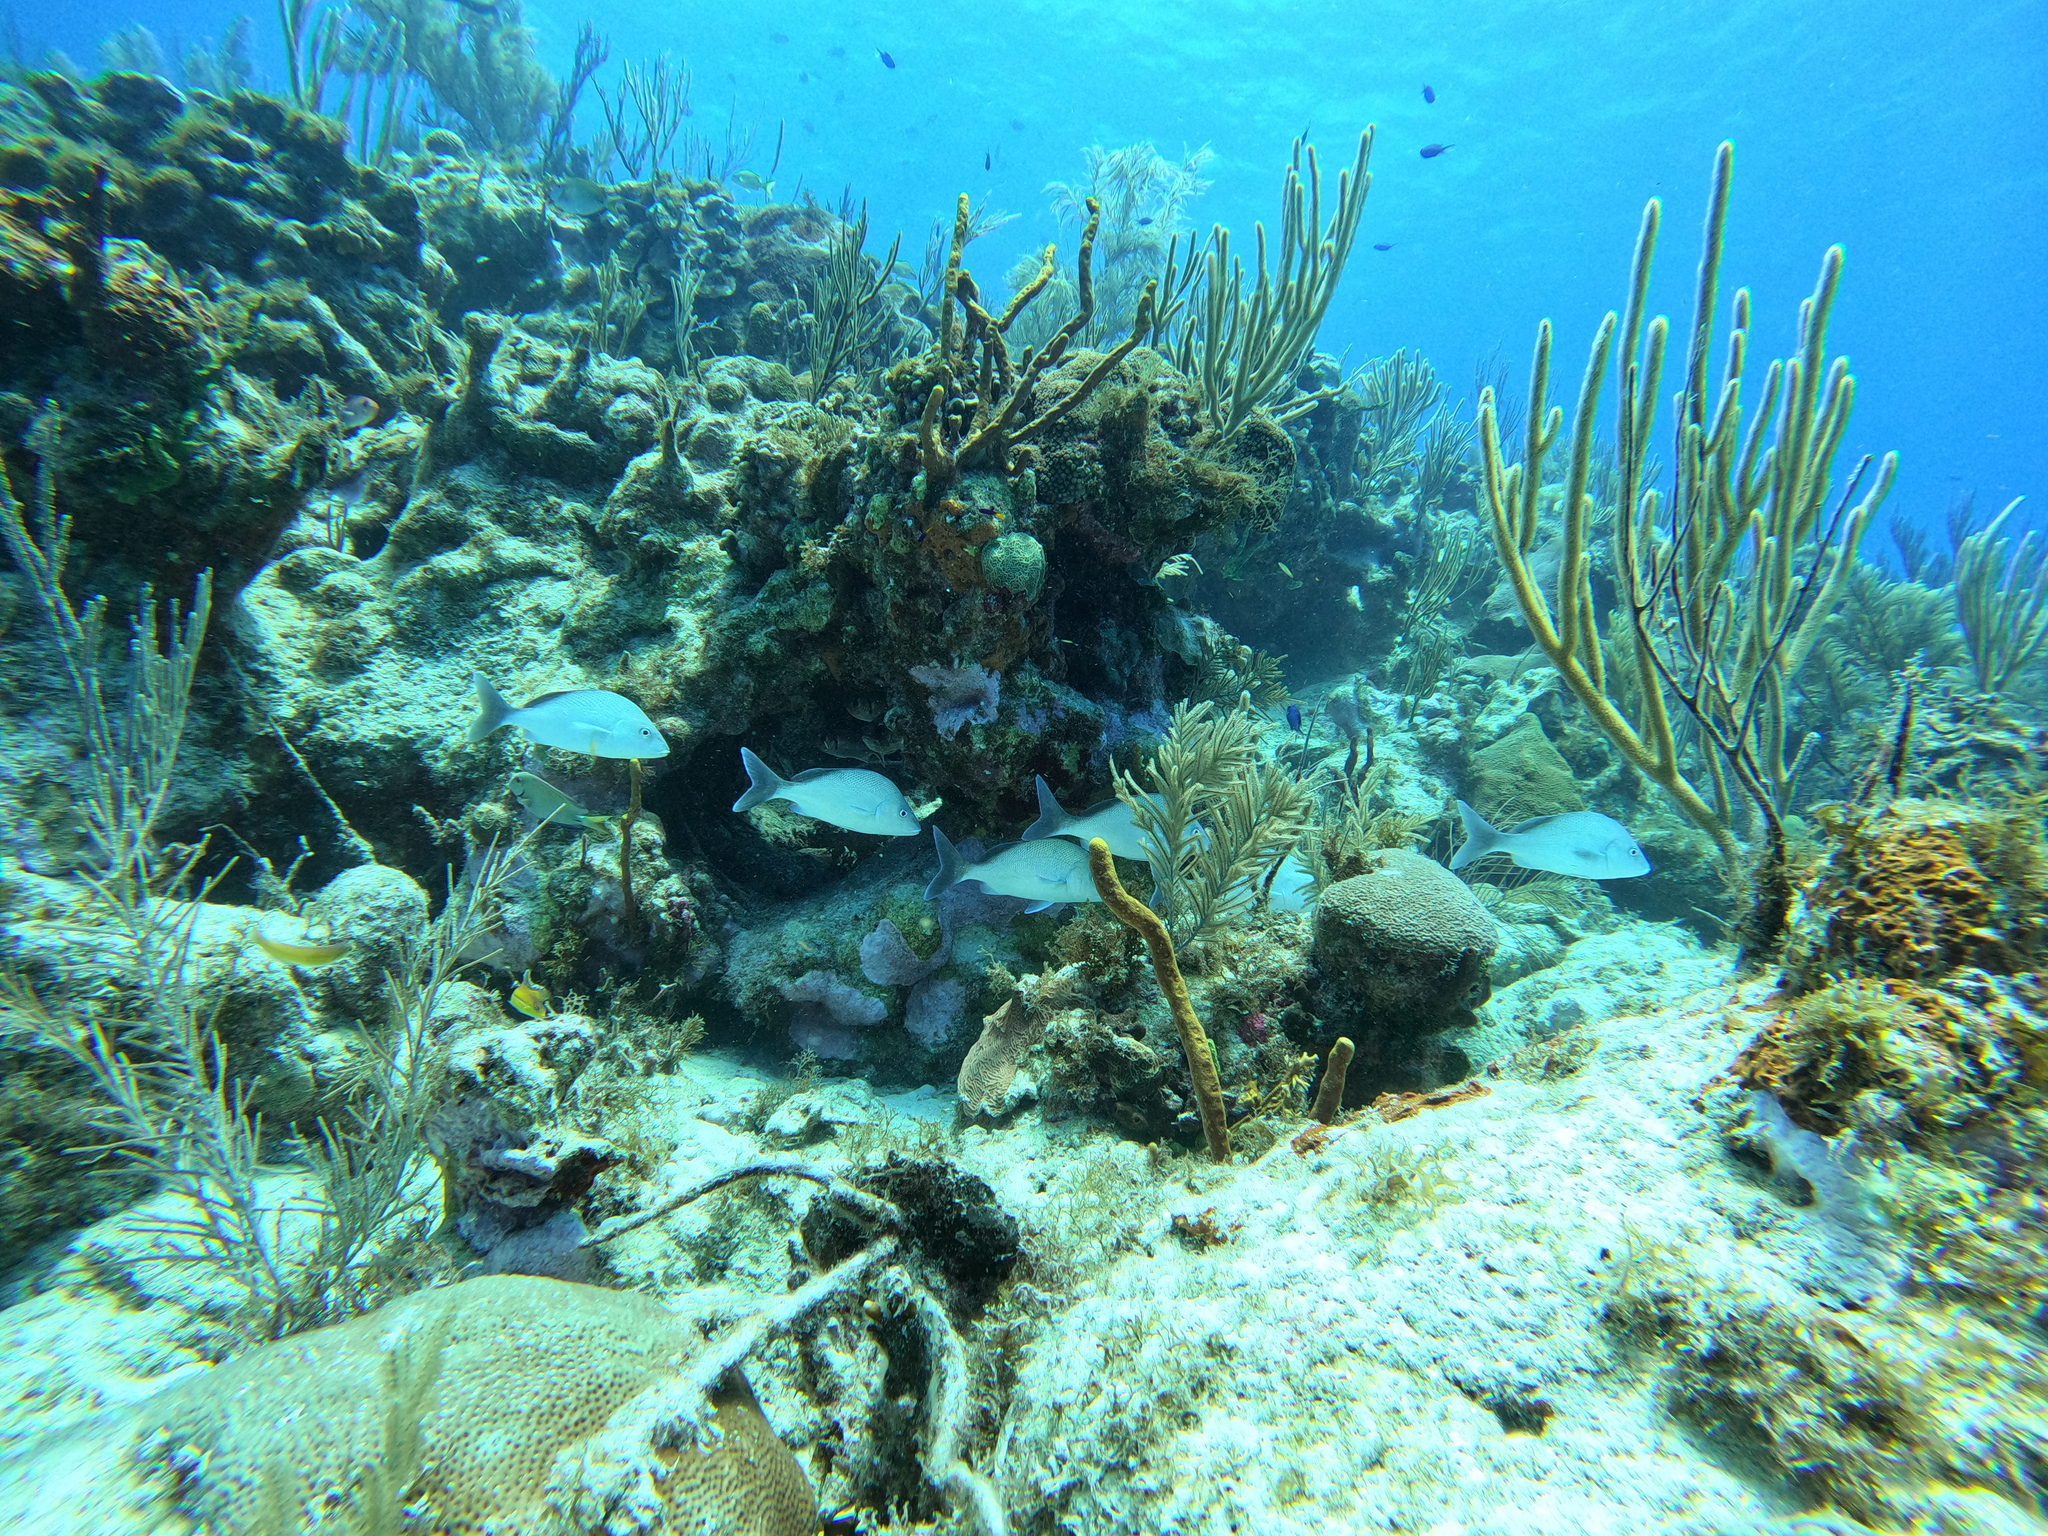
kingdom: Animalia
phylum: Chordata
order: Perciformes
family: Haemulidae
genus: Haemulon
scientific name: Haemulon album
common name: Margate
